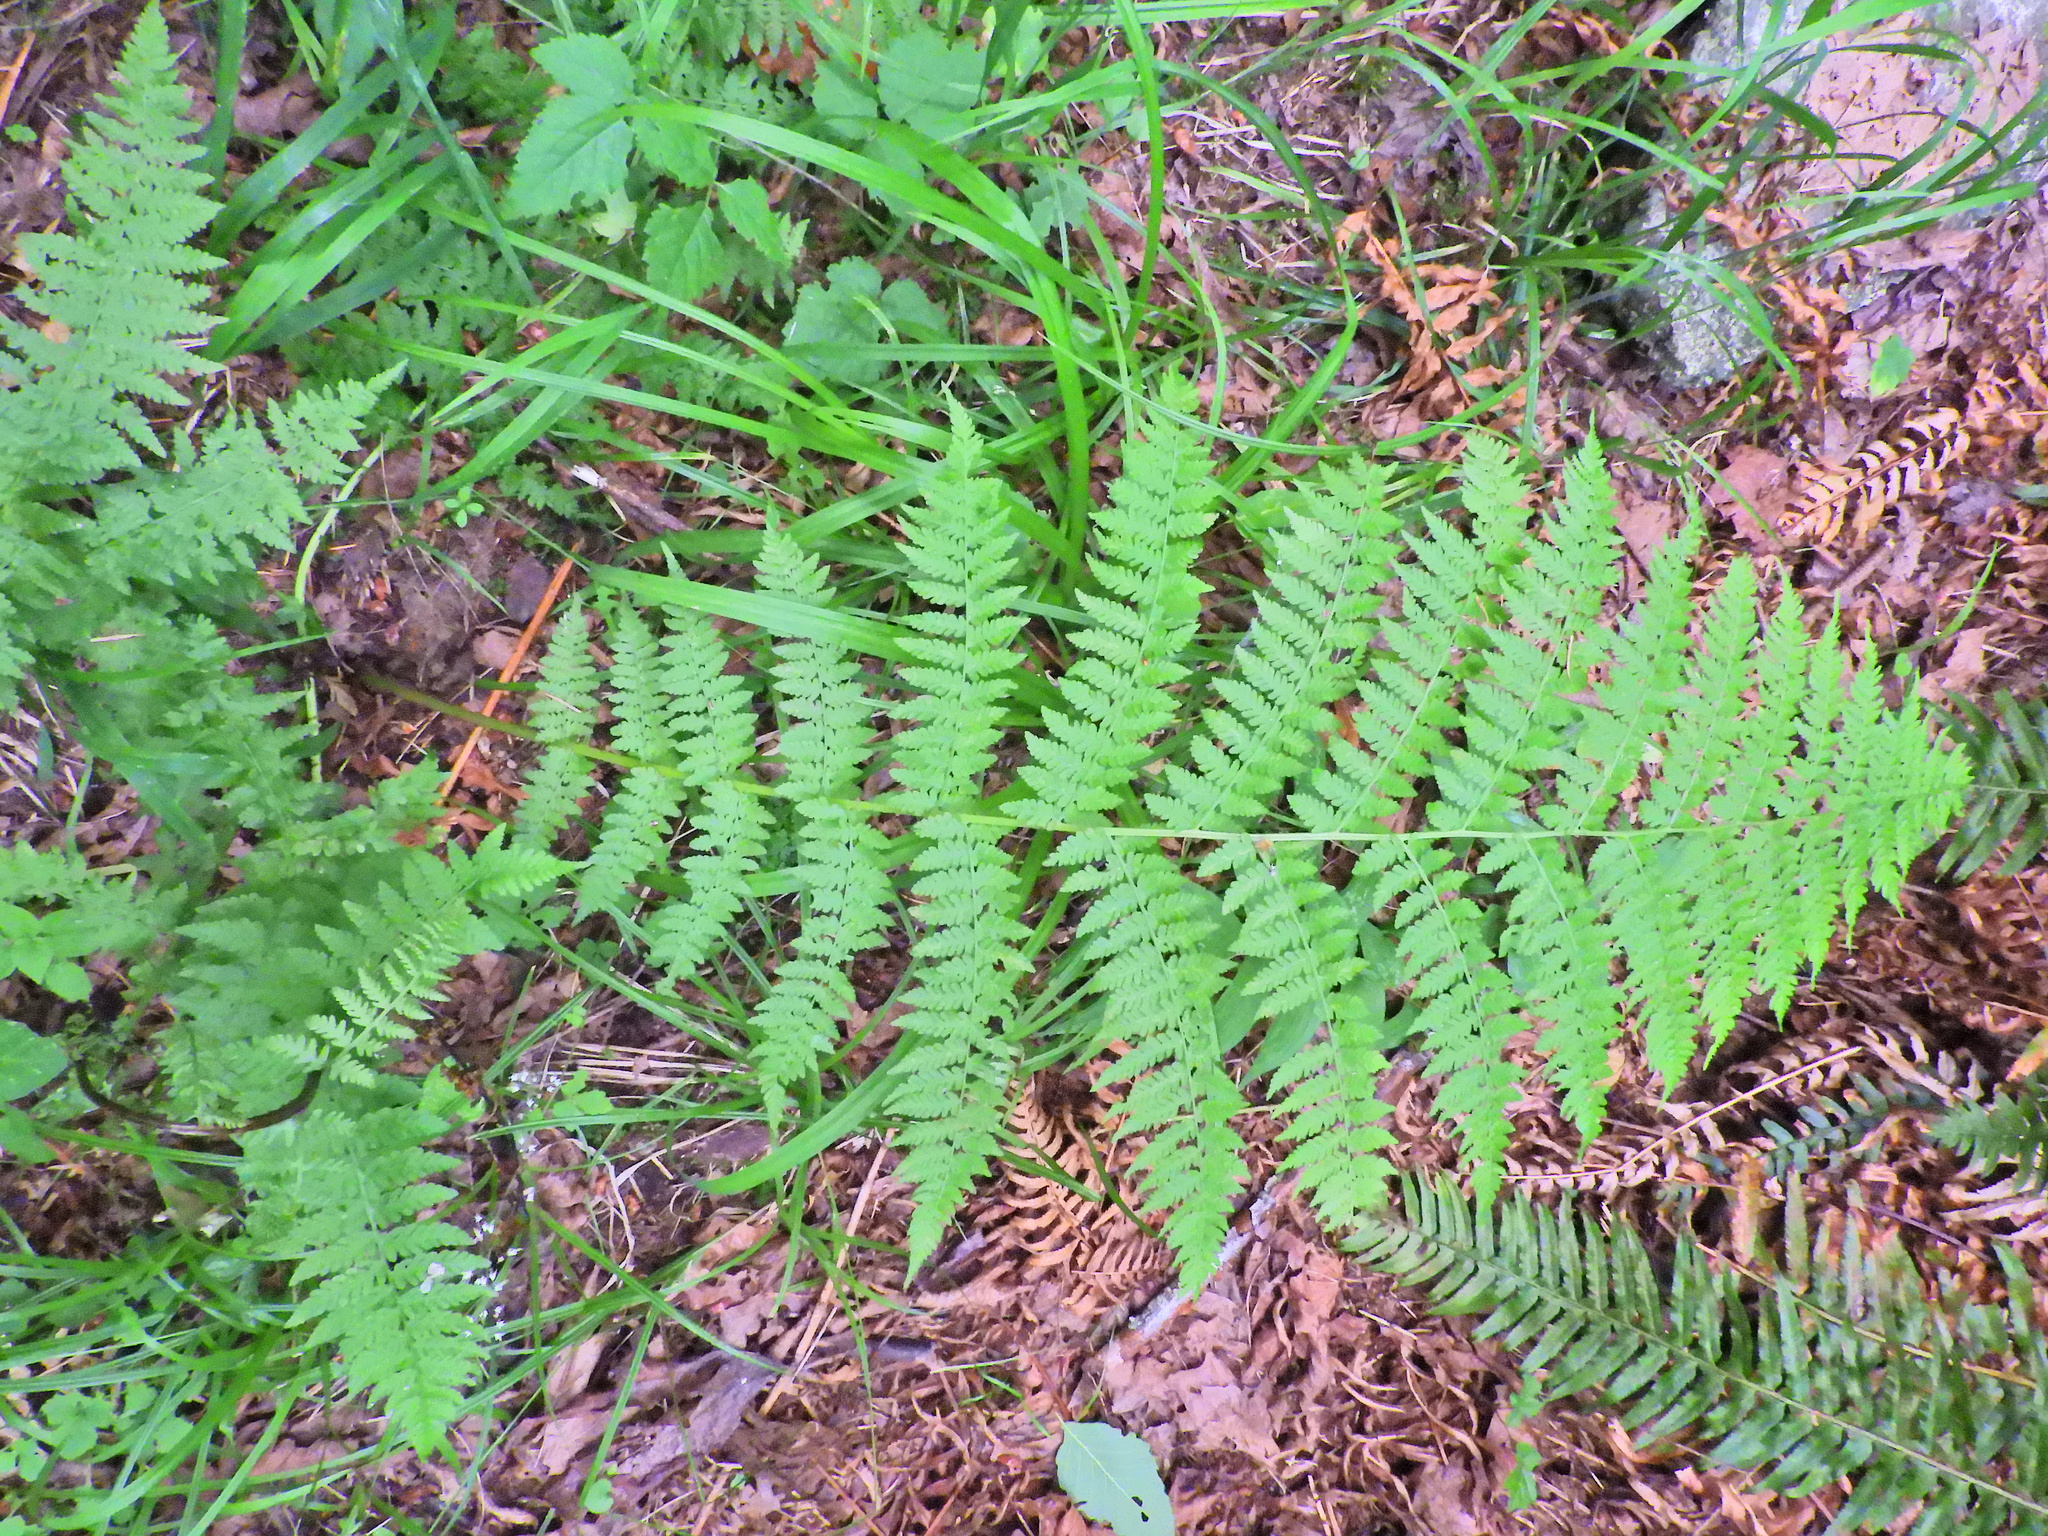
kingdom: Plantae
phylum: Tracheophyta
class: Polypodiopsida
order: Polypodiales
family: Athyriaceae
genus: Athyrium
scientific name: Athyrium filix-femina
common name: Lady fern
